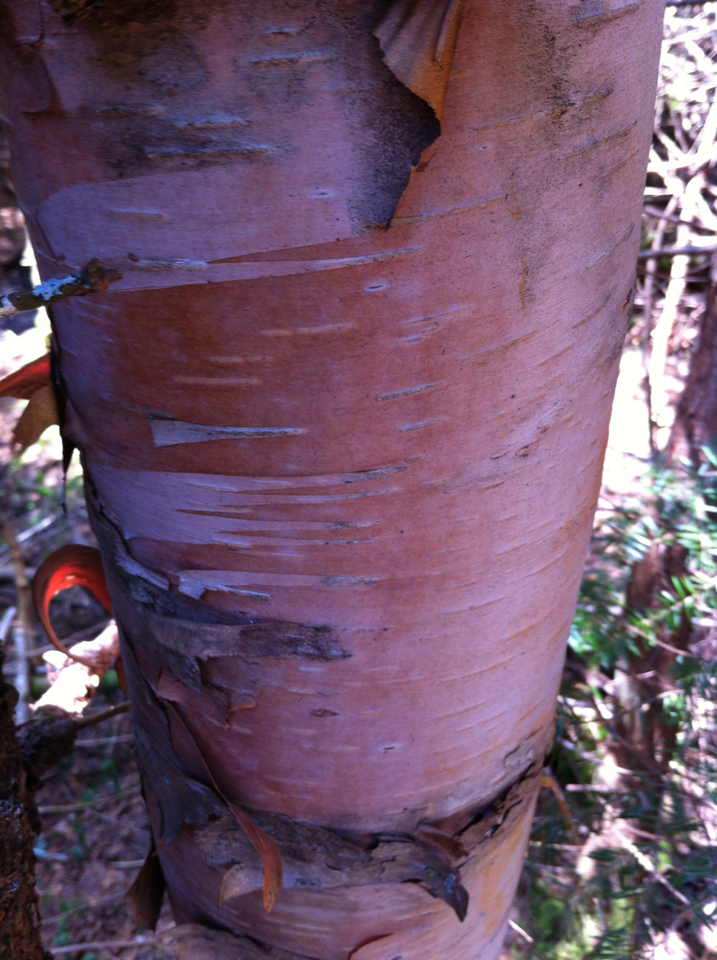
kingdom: Plantae
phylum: Tracheophyta
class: Magnoliopsida
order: Fagales
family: Betulaceae
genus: Betula
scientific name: Betula cordifolia
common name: Mountain white birch
